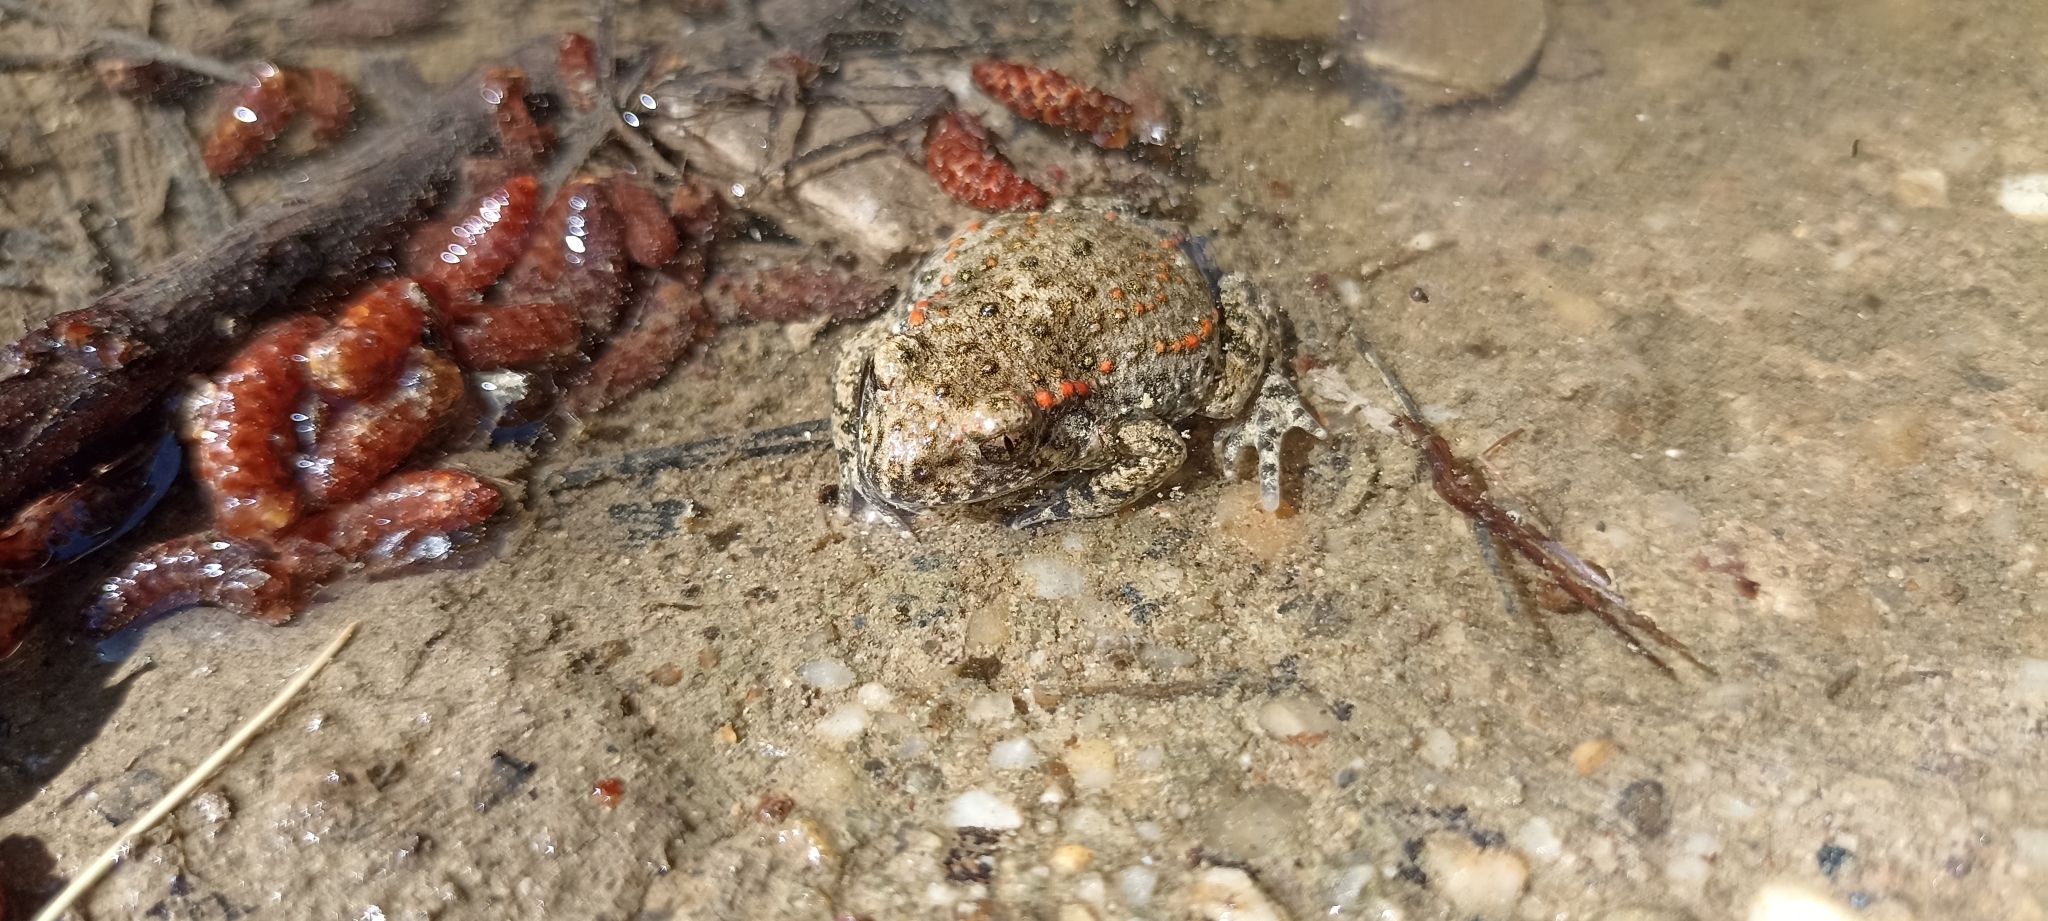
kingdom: Animalia
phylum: Chordata
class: Amphibia
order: Anura
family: Alytidae
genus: Alytes
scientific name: Alytes obstetricans
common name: Midwife toad
